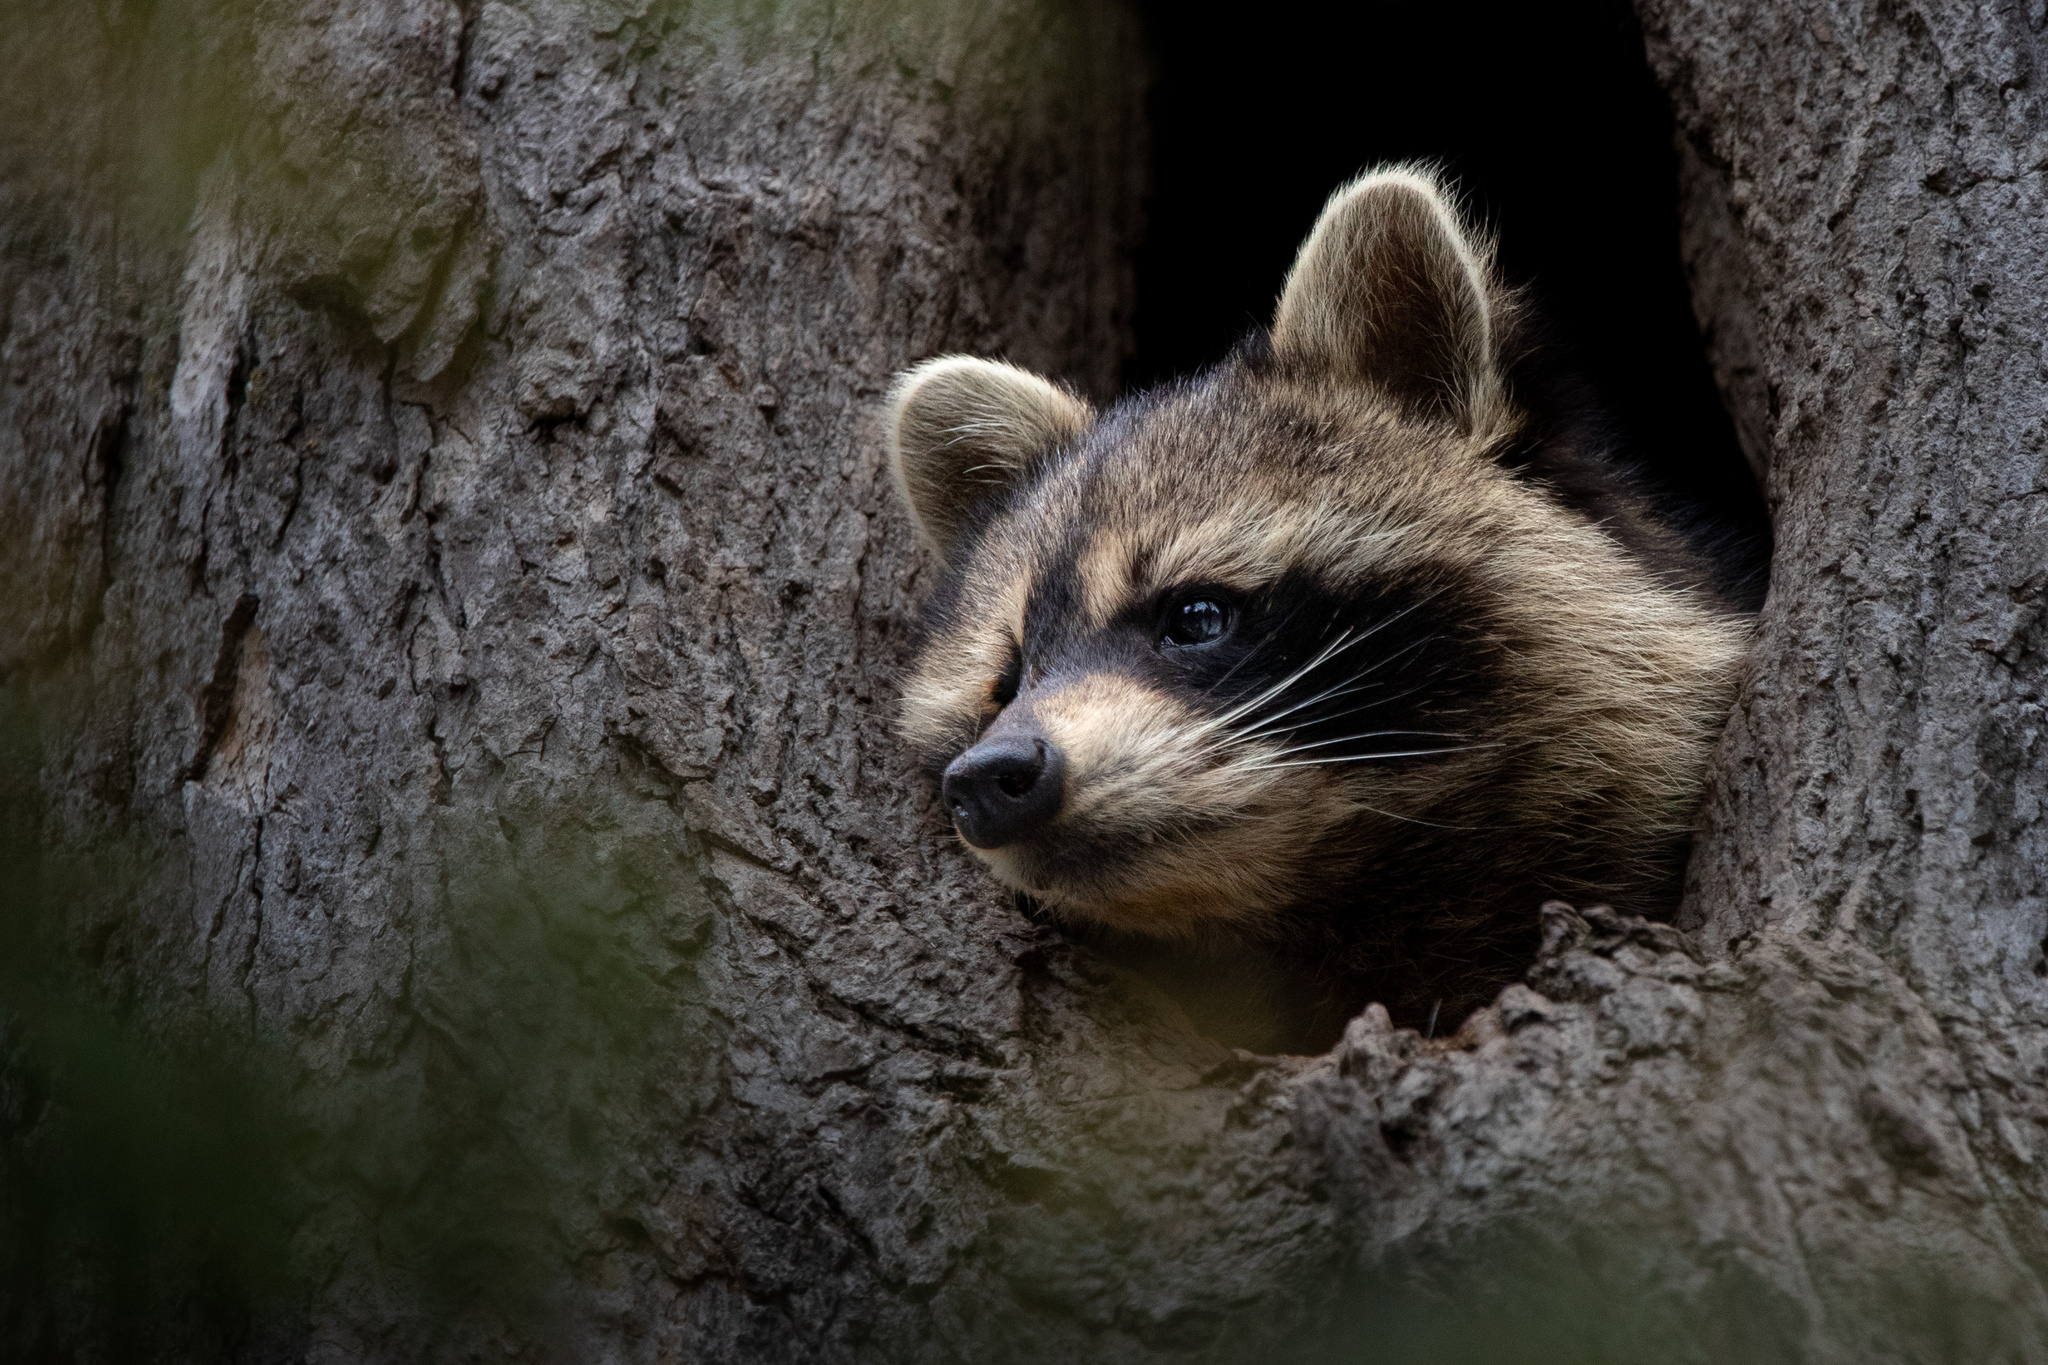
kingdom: Animalia
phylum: Chordata
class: Mammalia
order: Carnivora
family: Procyonidae
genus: Procyon
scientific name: Procyon lotor
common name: Raccoon
